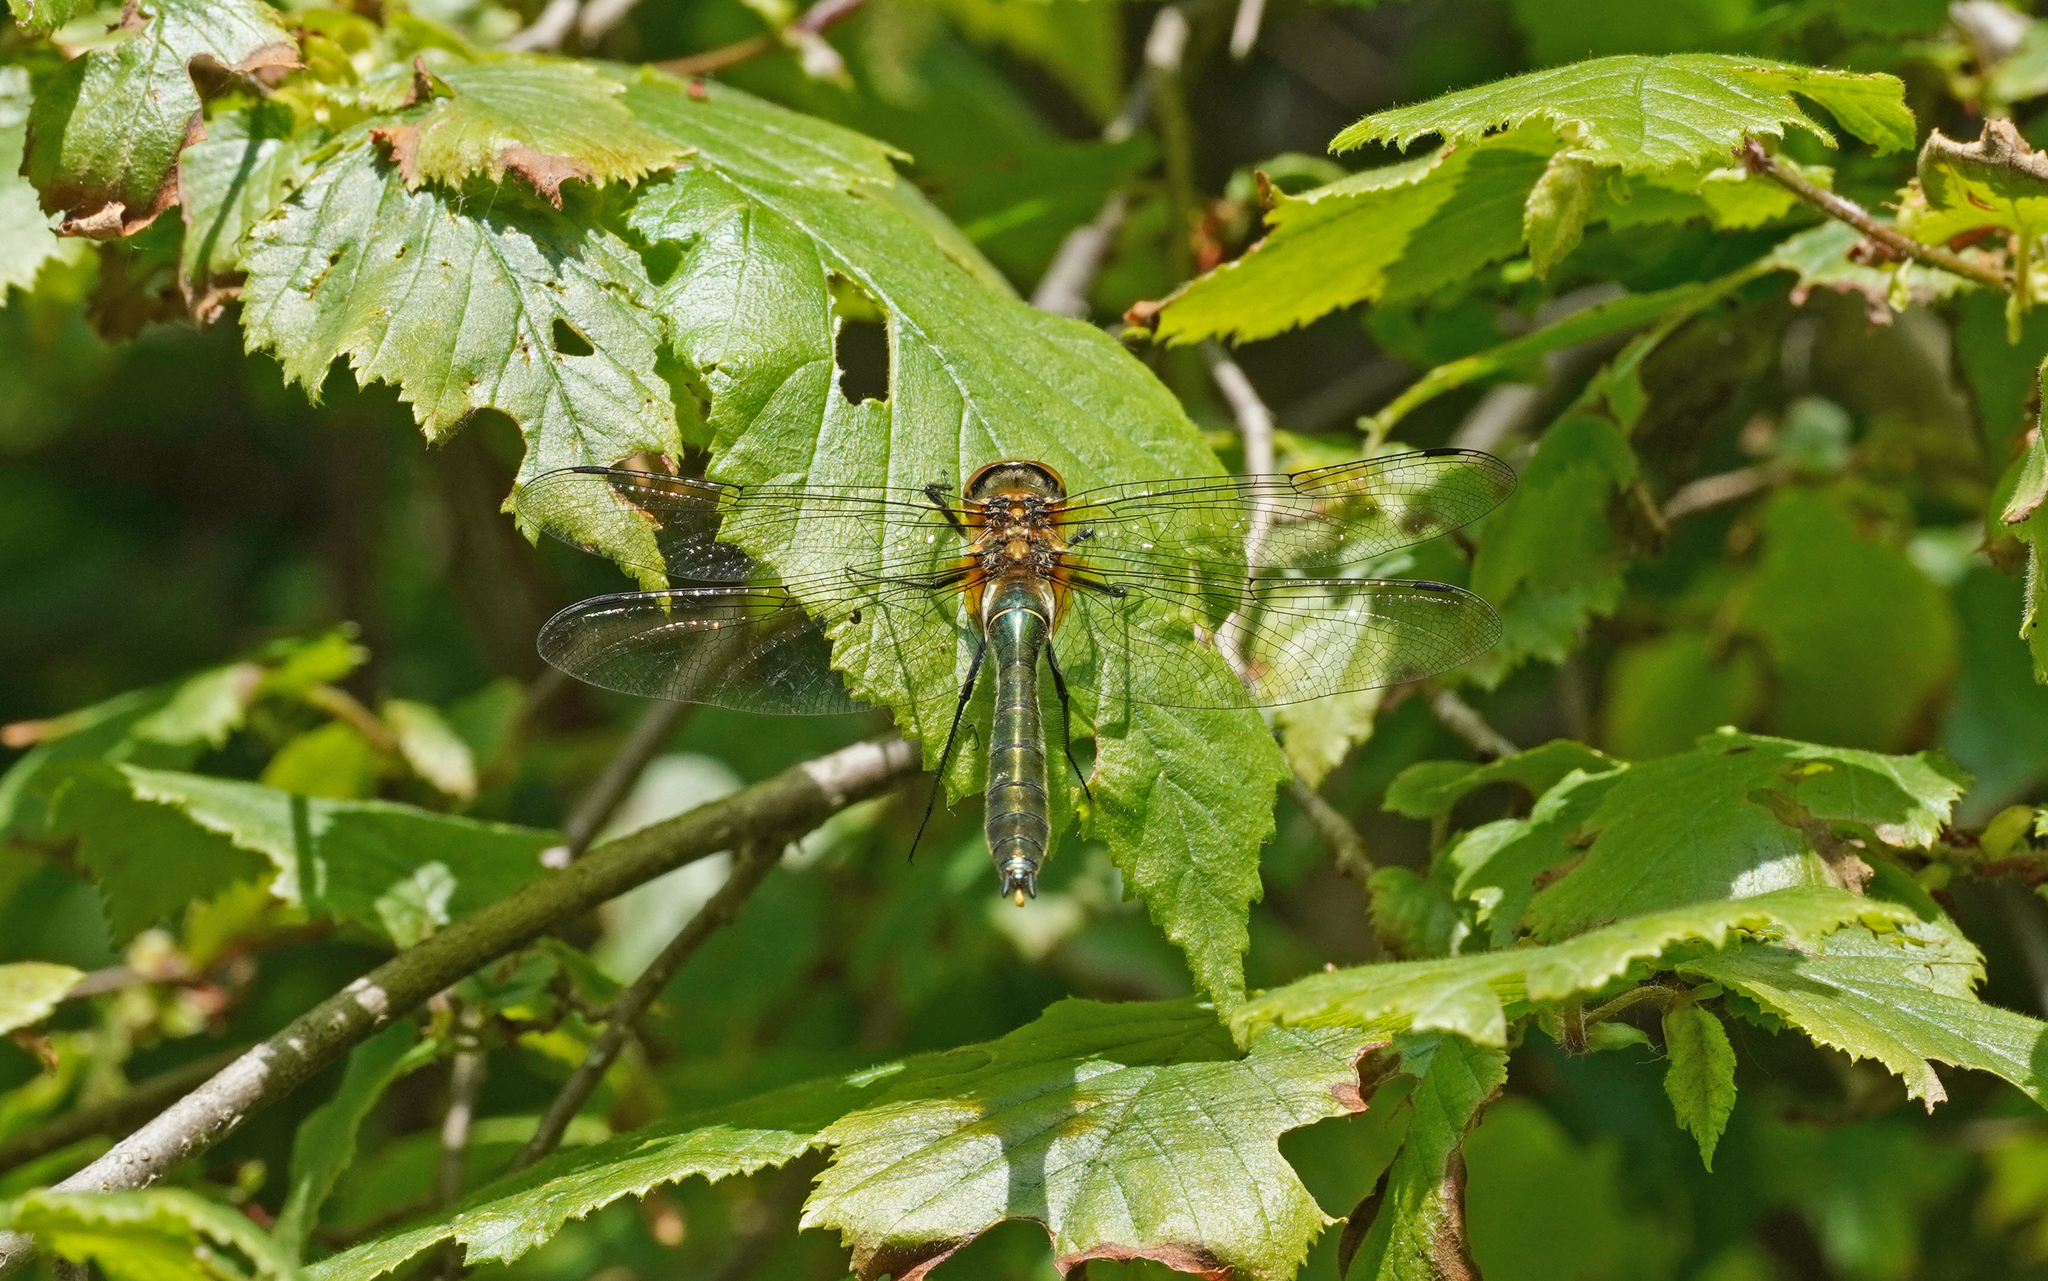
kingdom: Animalia
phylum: Arthropoda
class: Insecta
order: Odonata
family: Corduliidae
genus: Cordulia
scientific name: Cordulia aenea
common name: Downy emerald
